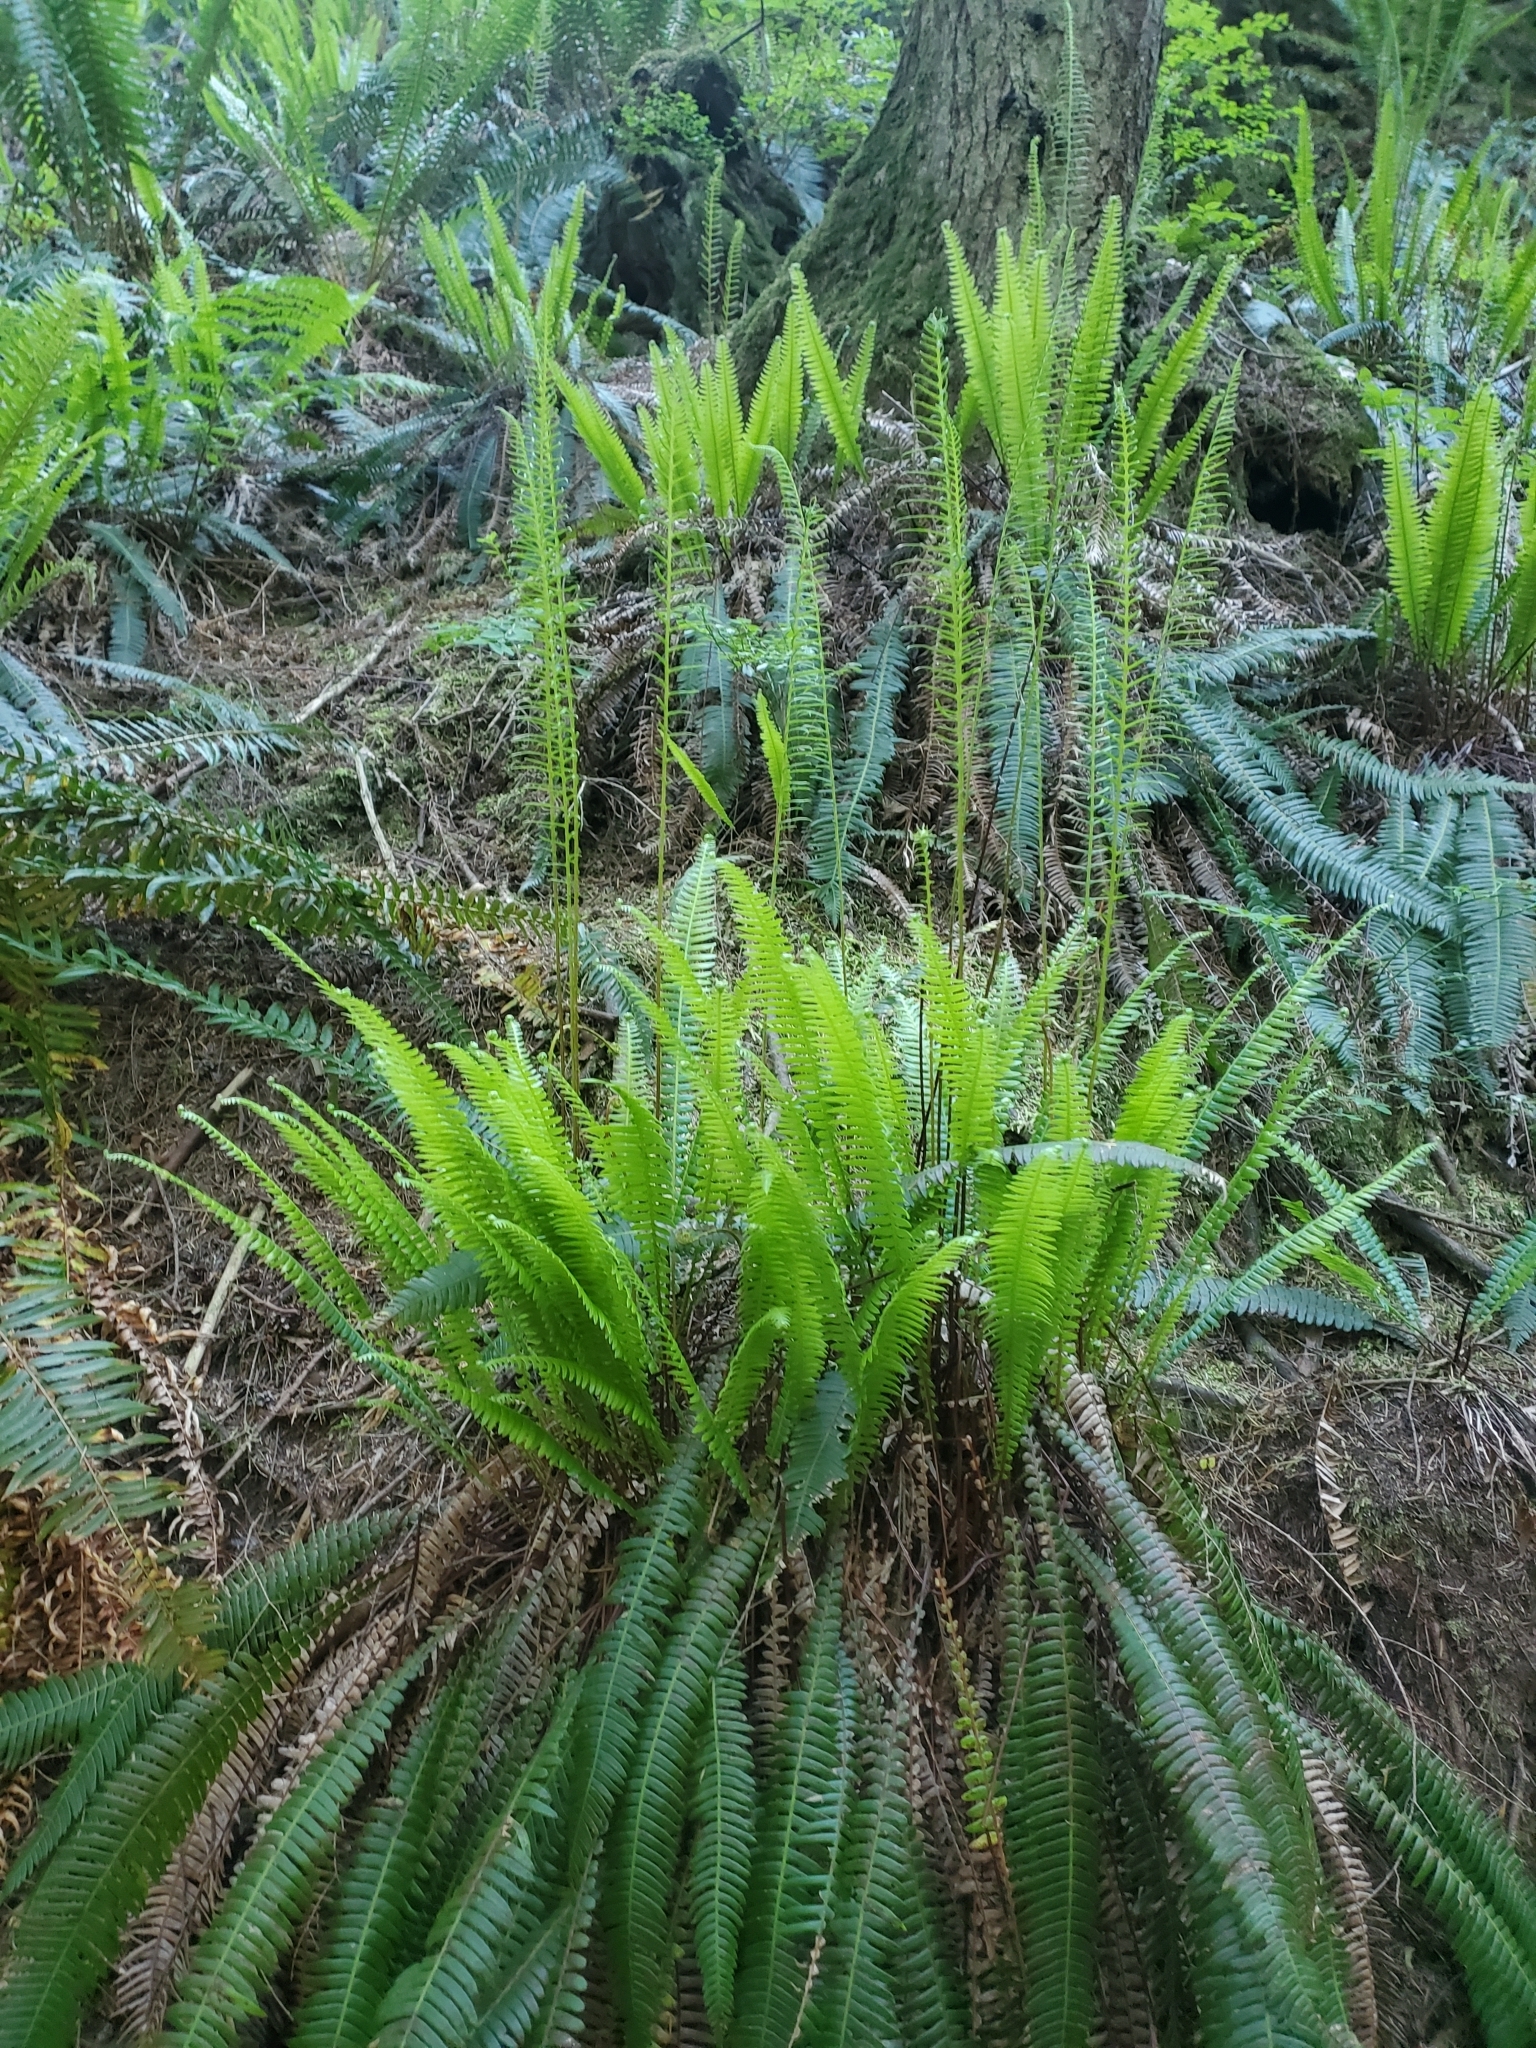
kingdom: Plantae
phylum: Tracheophyta
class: Polypodiopsida
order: Polypodiales
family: Blechnaceae
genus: Struthiopteris
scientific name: Struthiopteris spicant
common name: Deer fern
